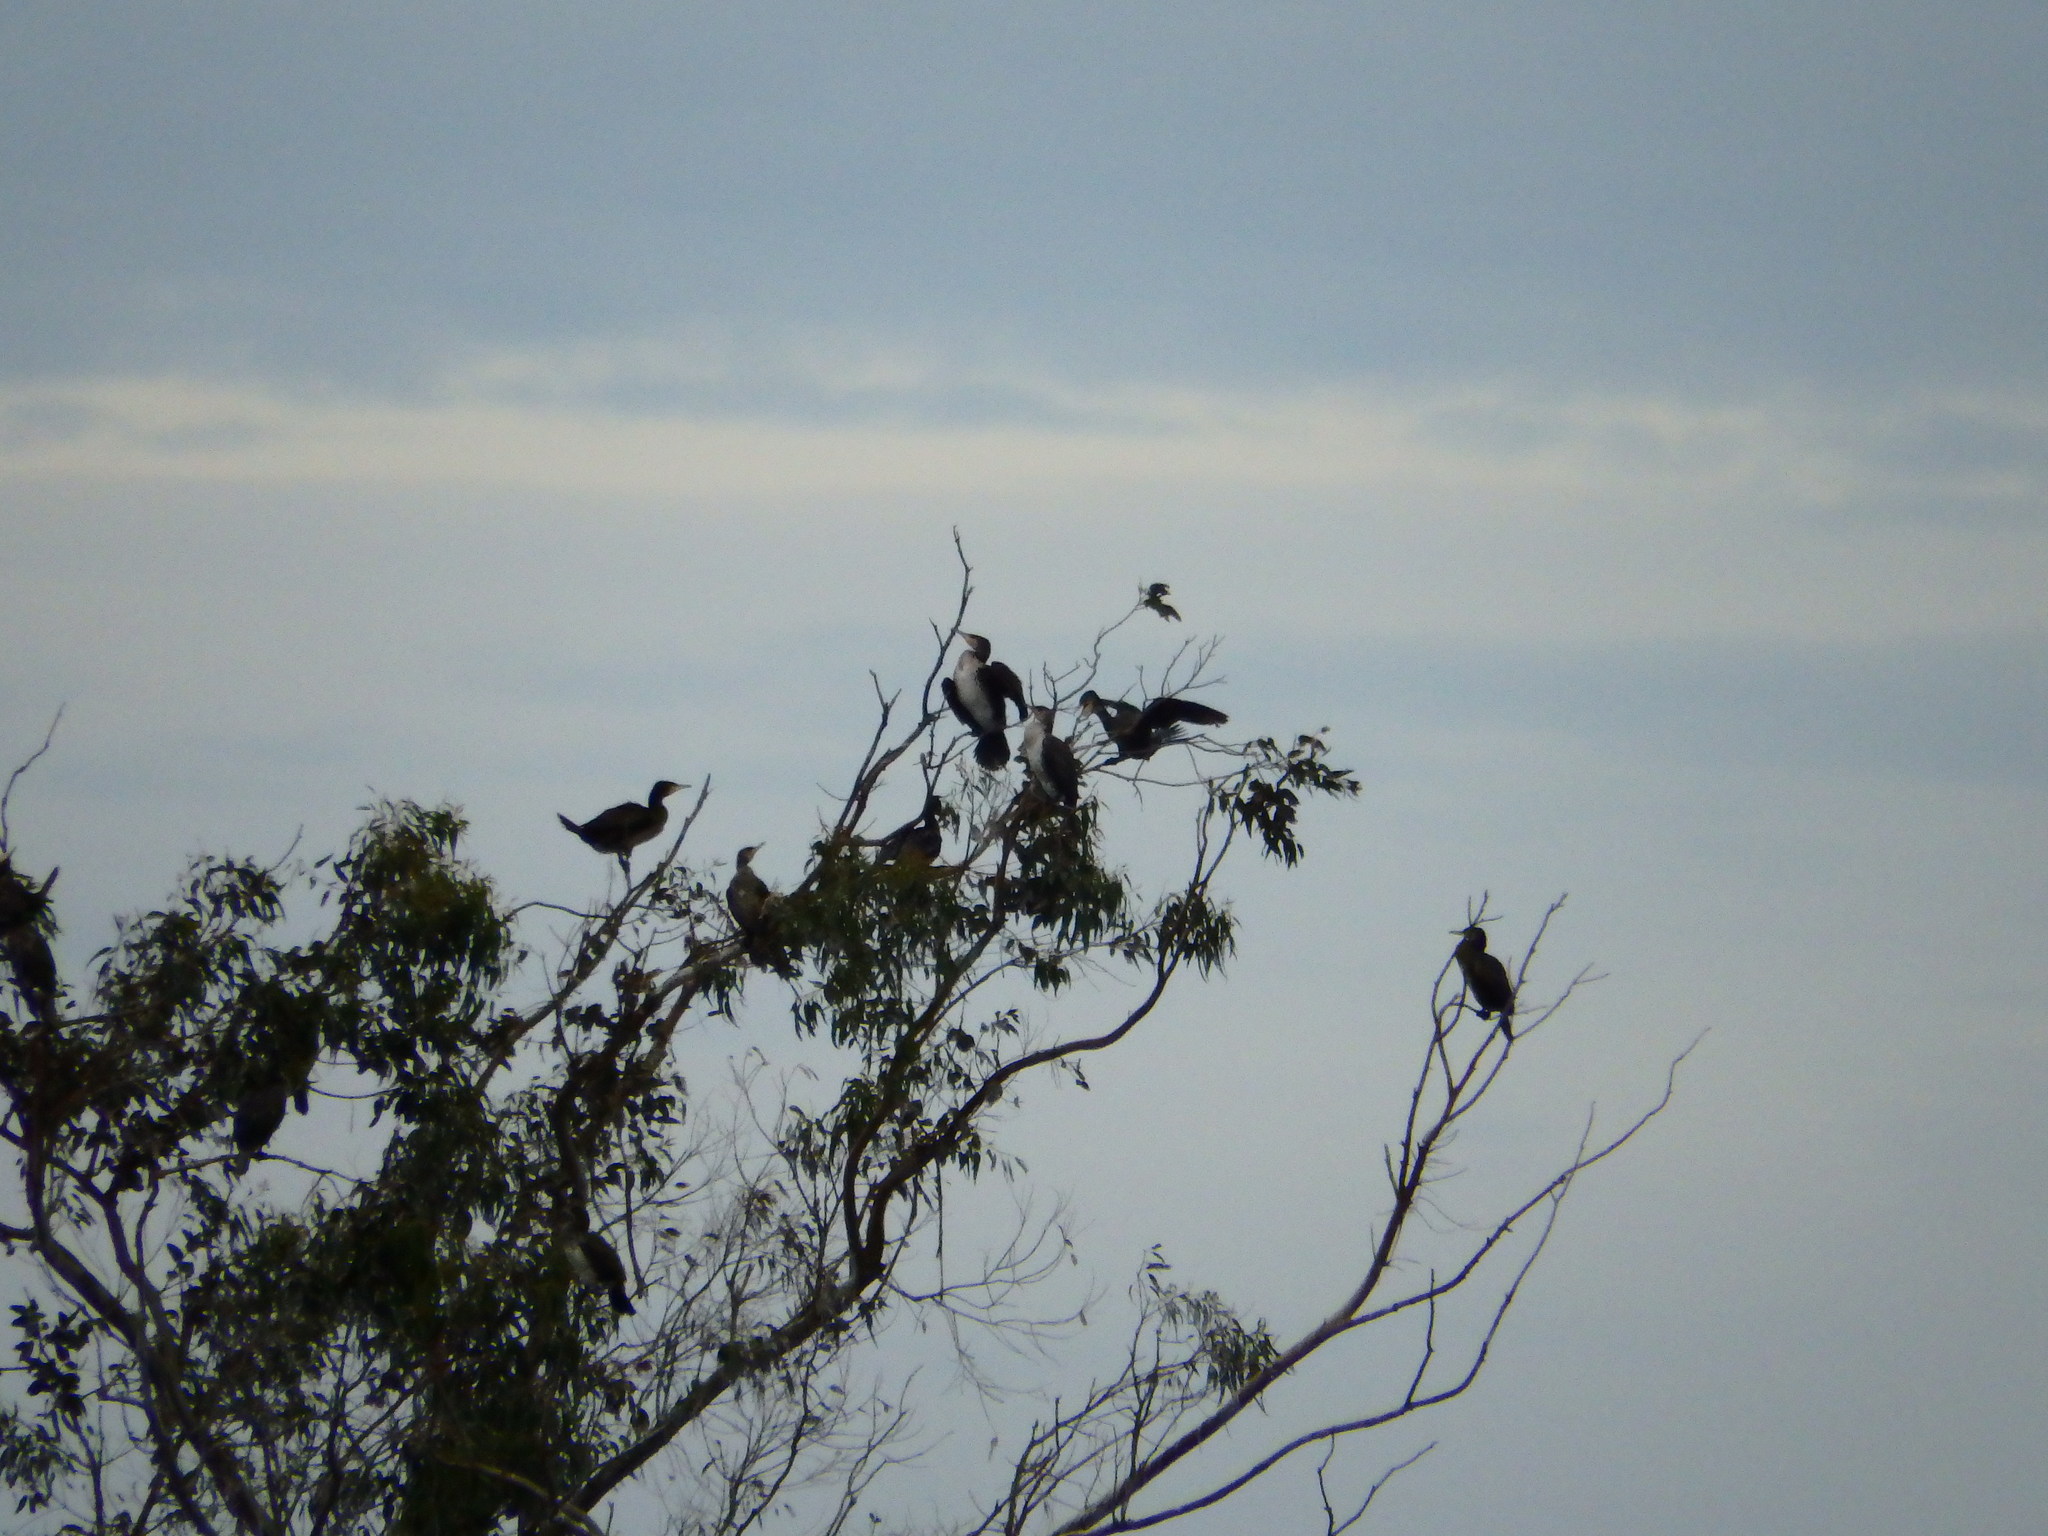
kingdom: Animalia
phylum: Chordata
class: Aves
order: Suliformes
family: Phalacrocoracidae
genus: Phalacrocorax
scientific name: Phalacrocorax carbo
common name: Great cormorant
